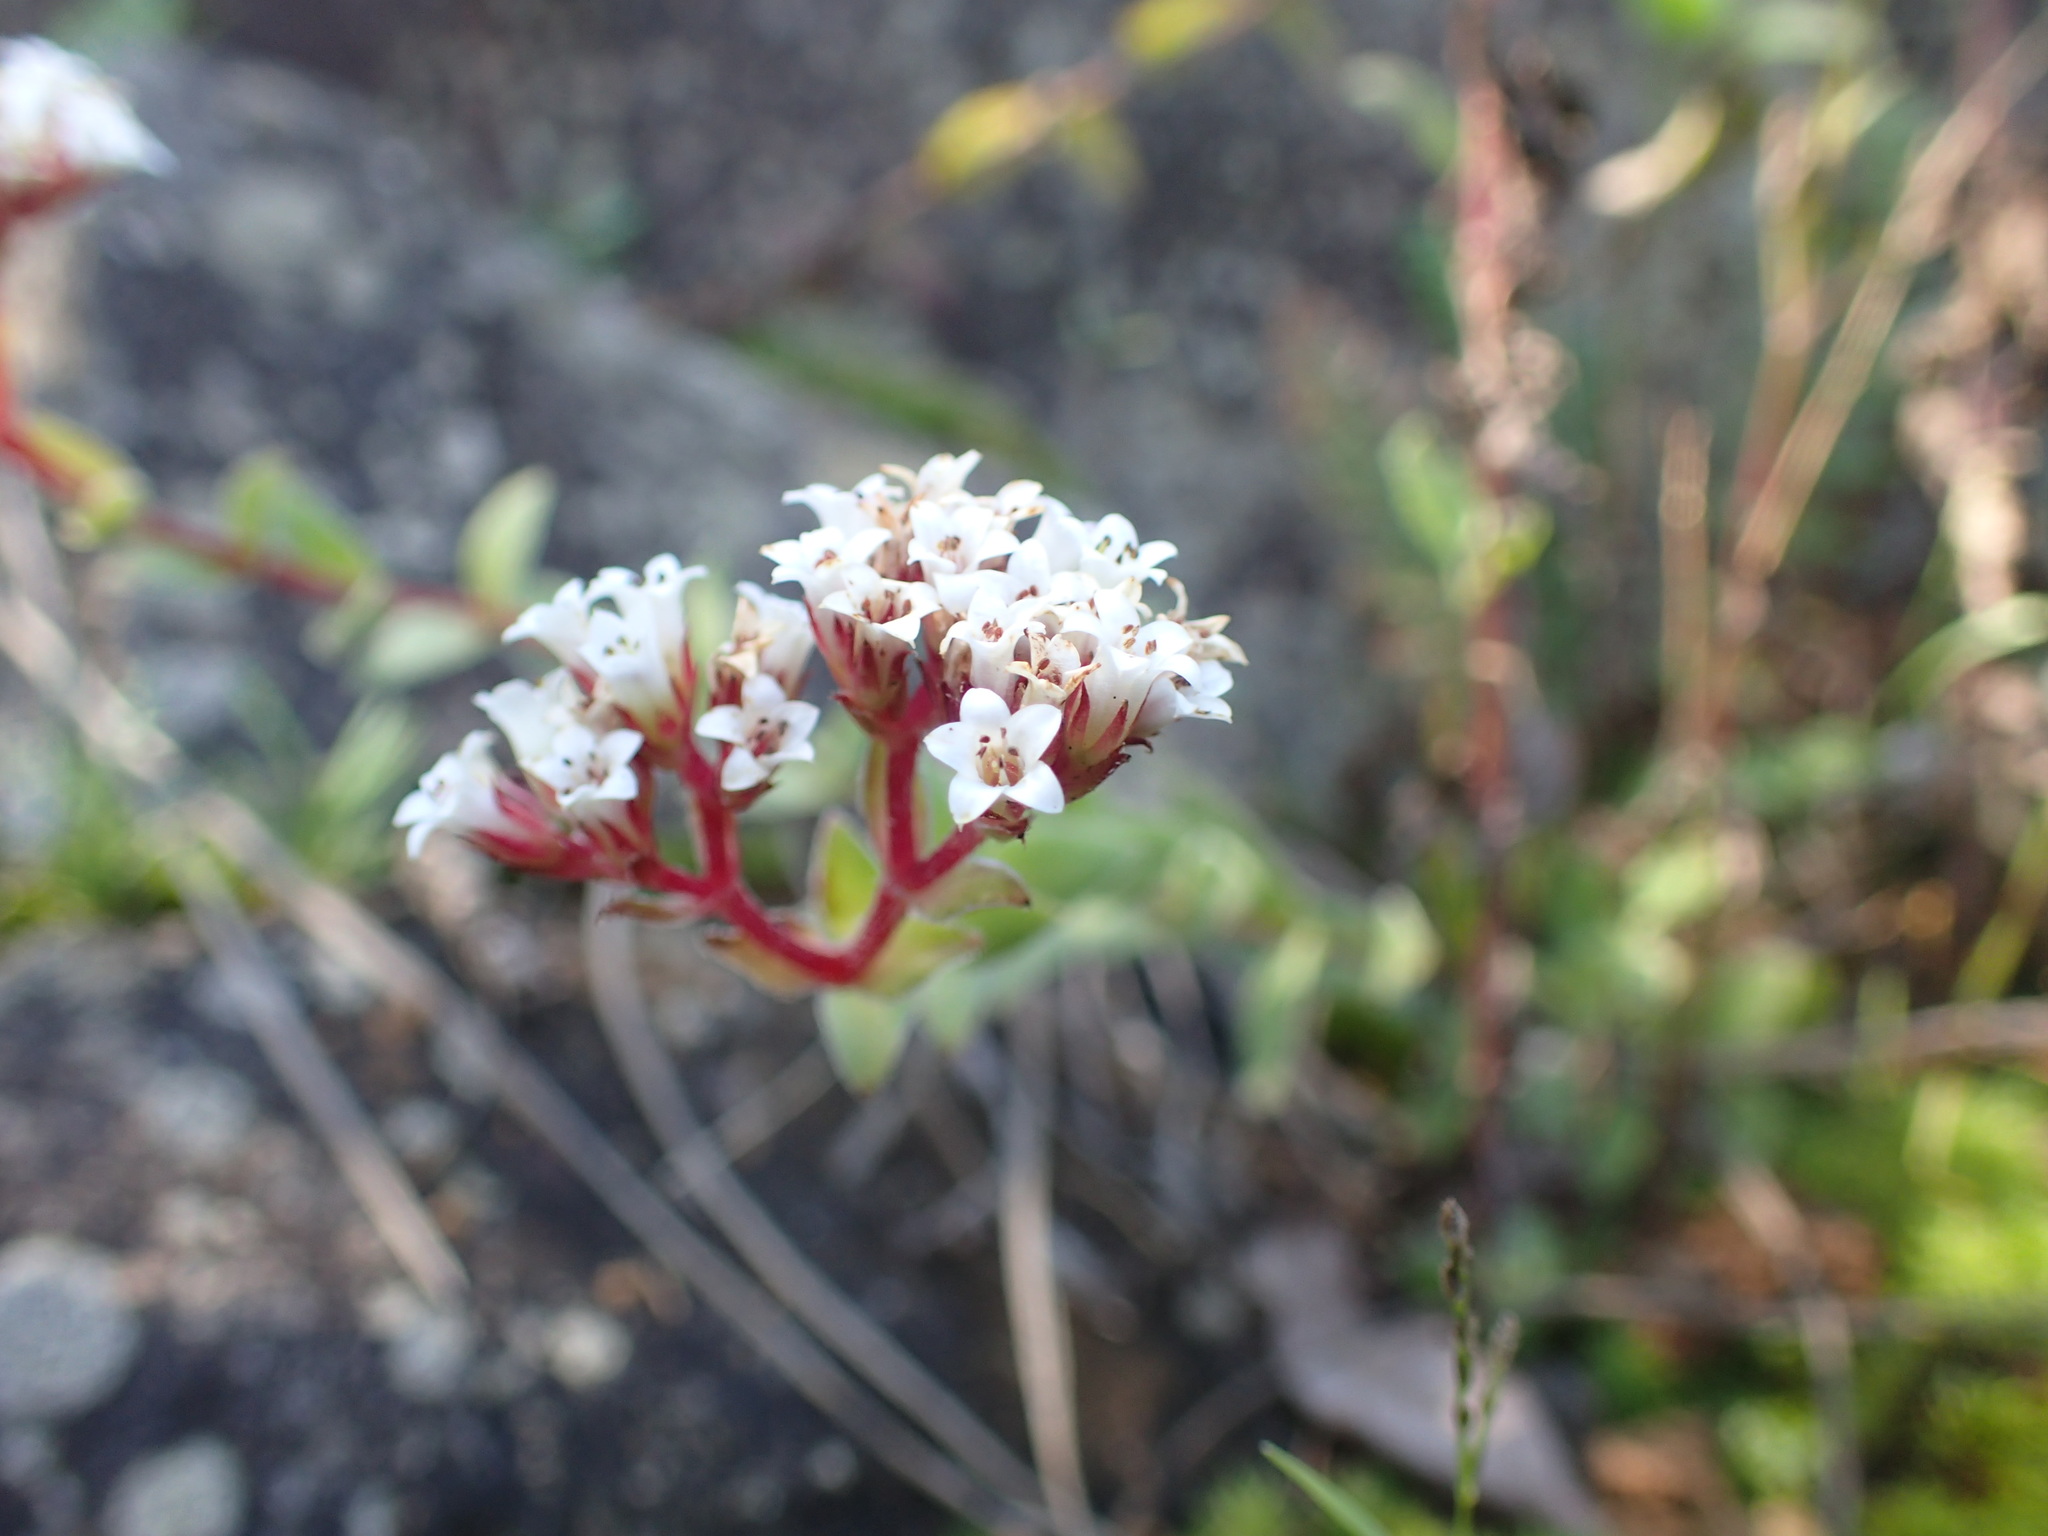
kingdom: Plantae
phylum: Tracheophyta
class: Magnoliopsida
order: Saxifragales
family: Crassulaceae
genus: Crassula
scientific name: Crassula setulosa
